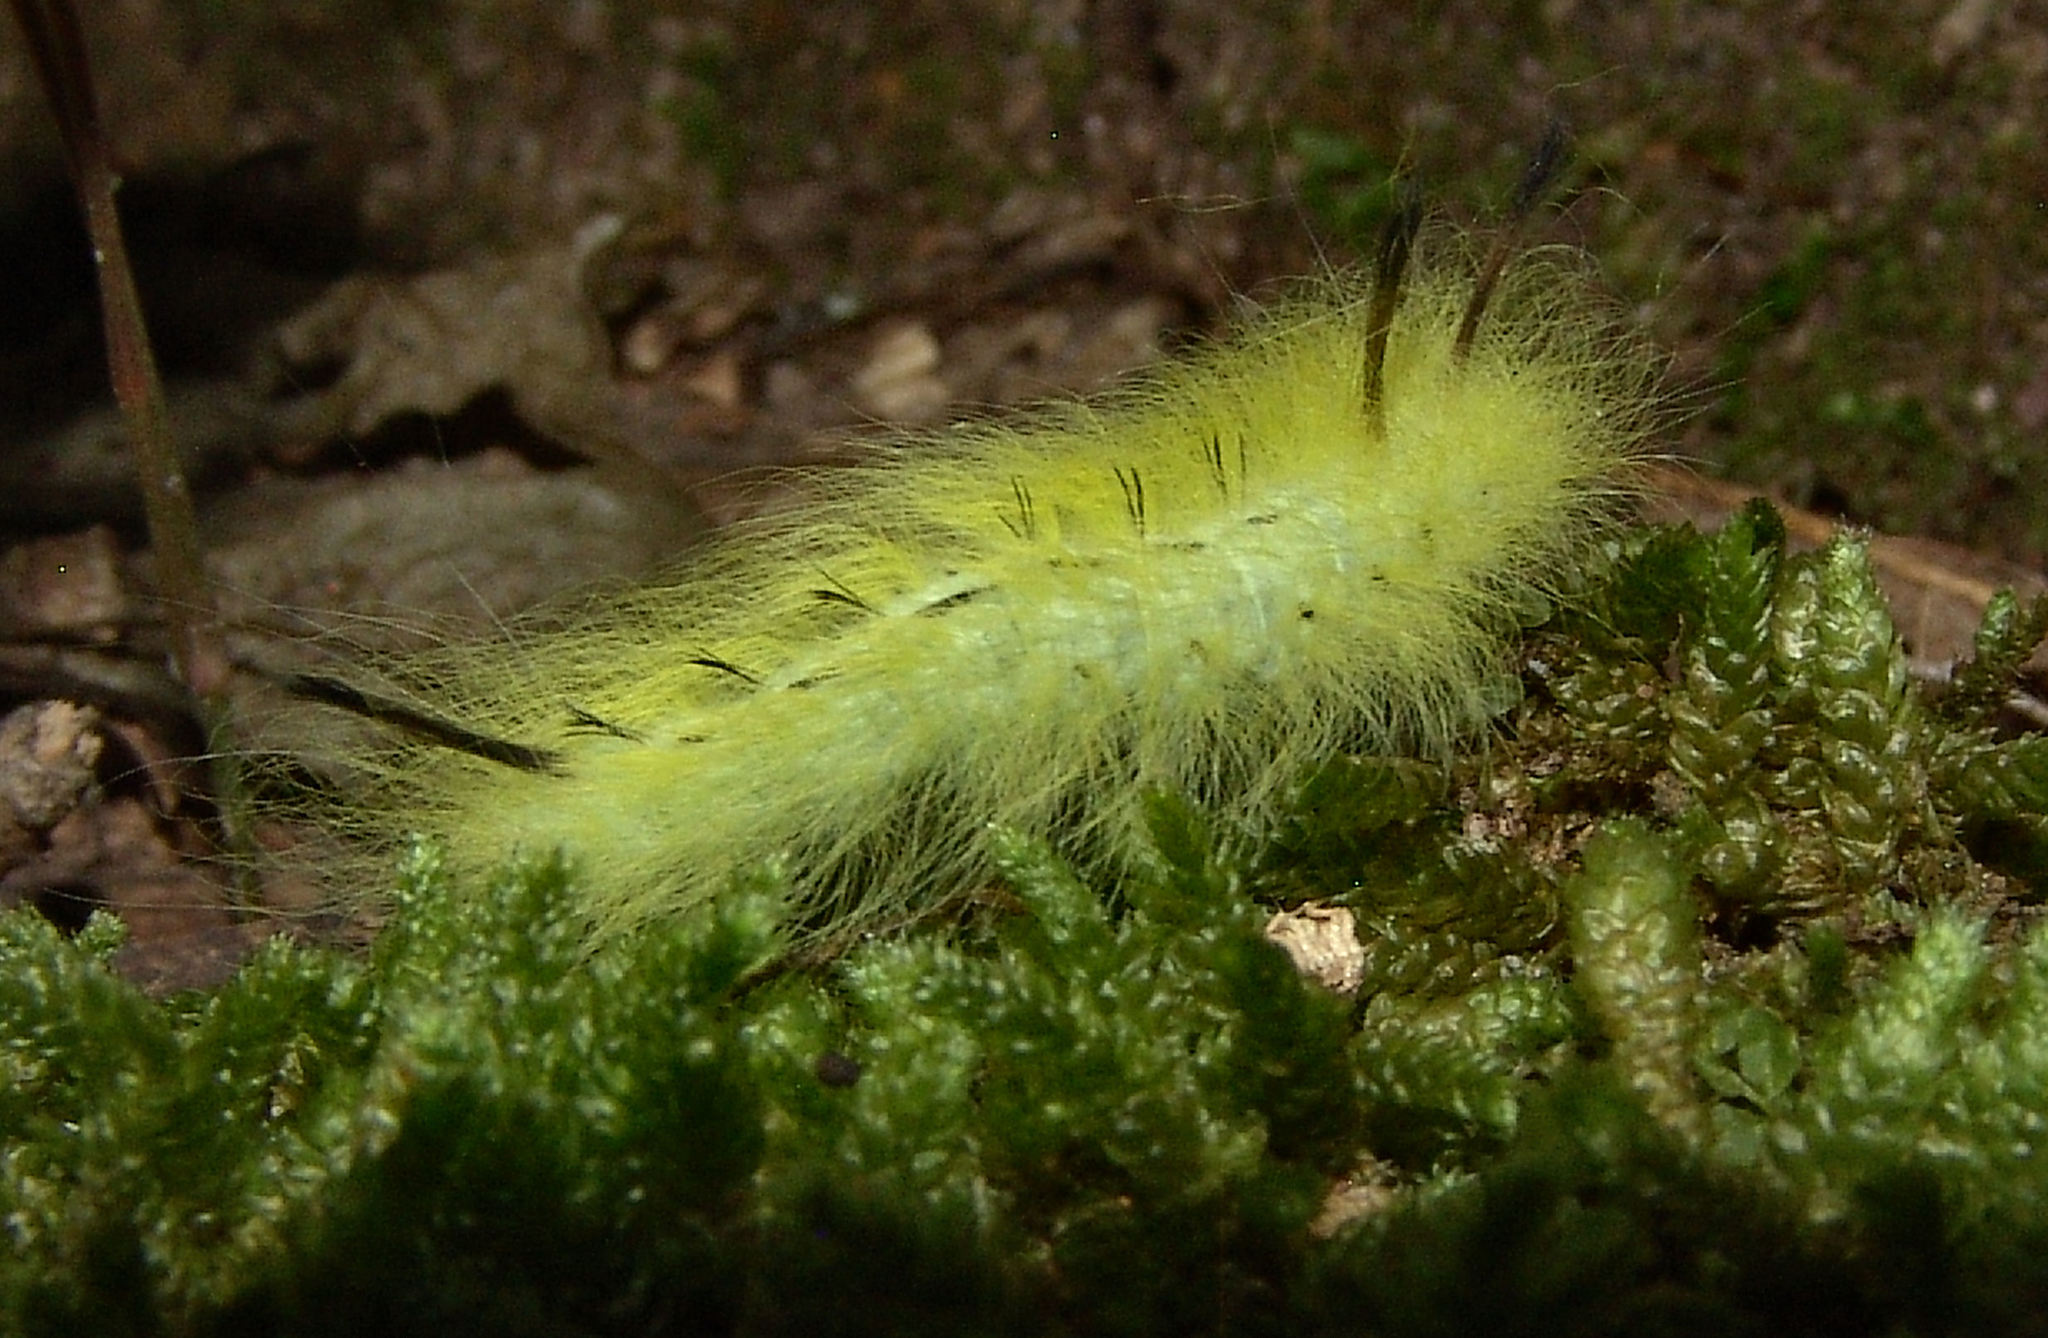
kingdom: Animalia
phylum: Arthropoda
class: Insecta
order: Lepidoptera
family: Apatelodidae
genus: Hygrochroa
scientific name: Hygrochroa Apatelodes torrefacta
